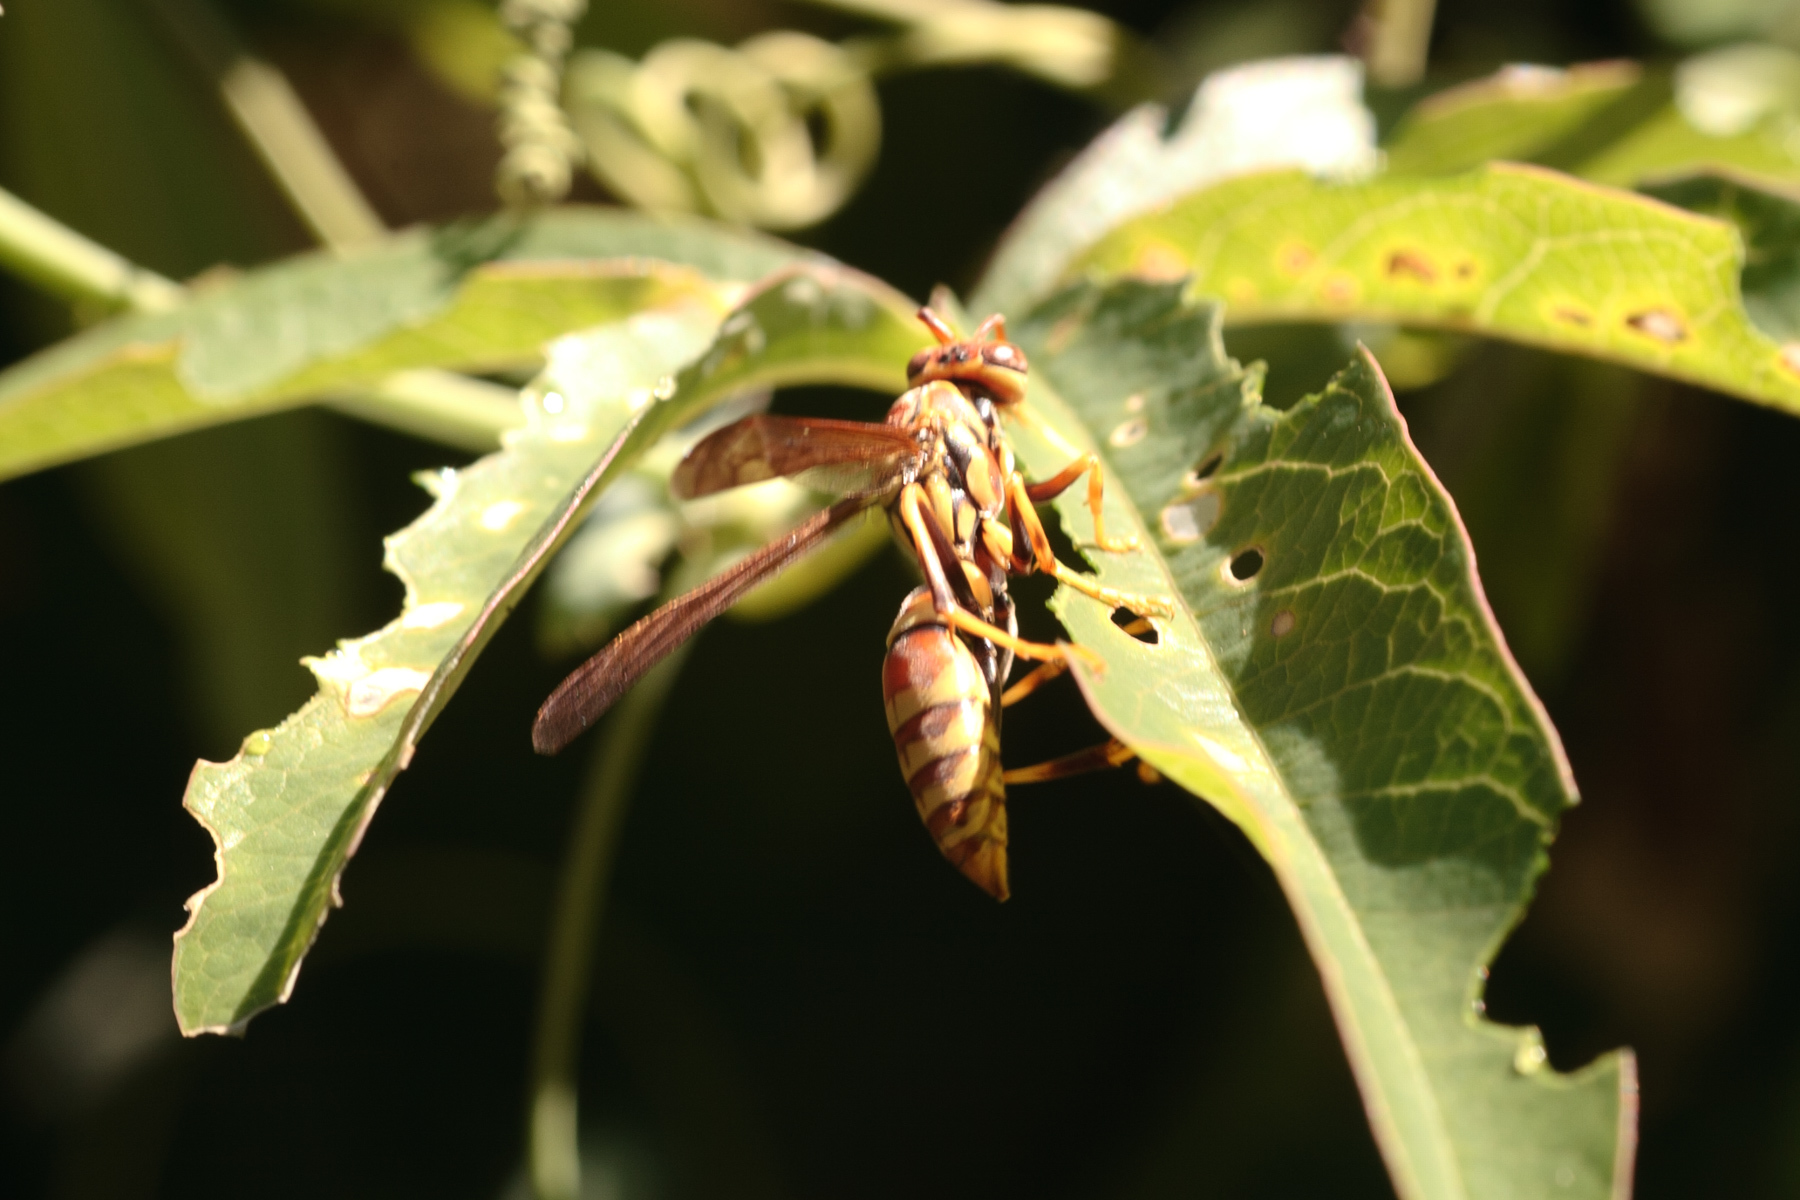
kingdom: Animalia
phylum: Arthropoda
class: Insecta
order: Hymenoptera
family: Eumenidae
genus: Polistes
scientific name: Polistes exclamans
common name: Paper wasp
